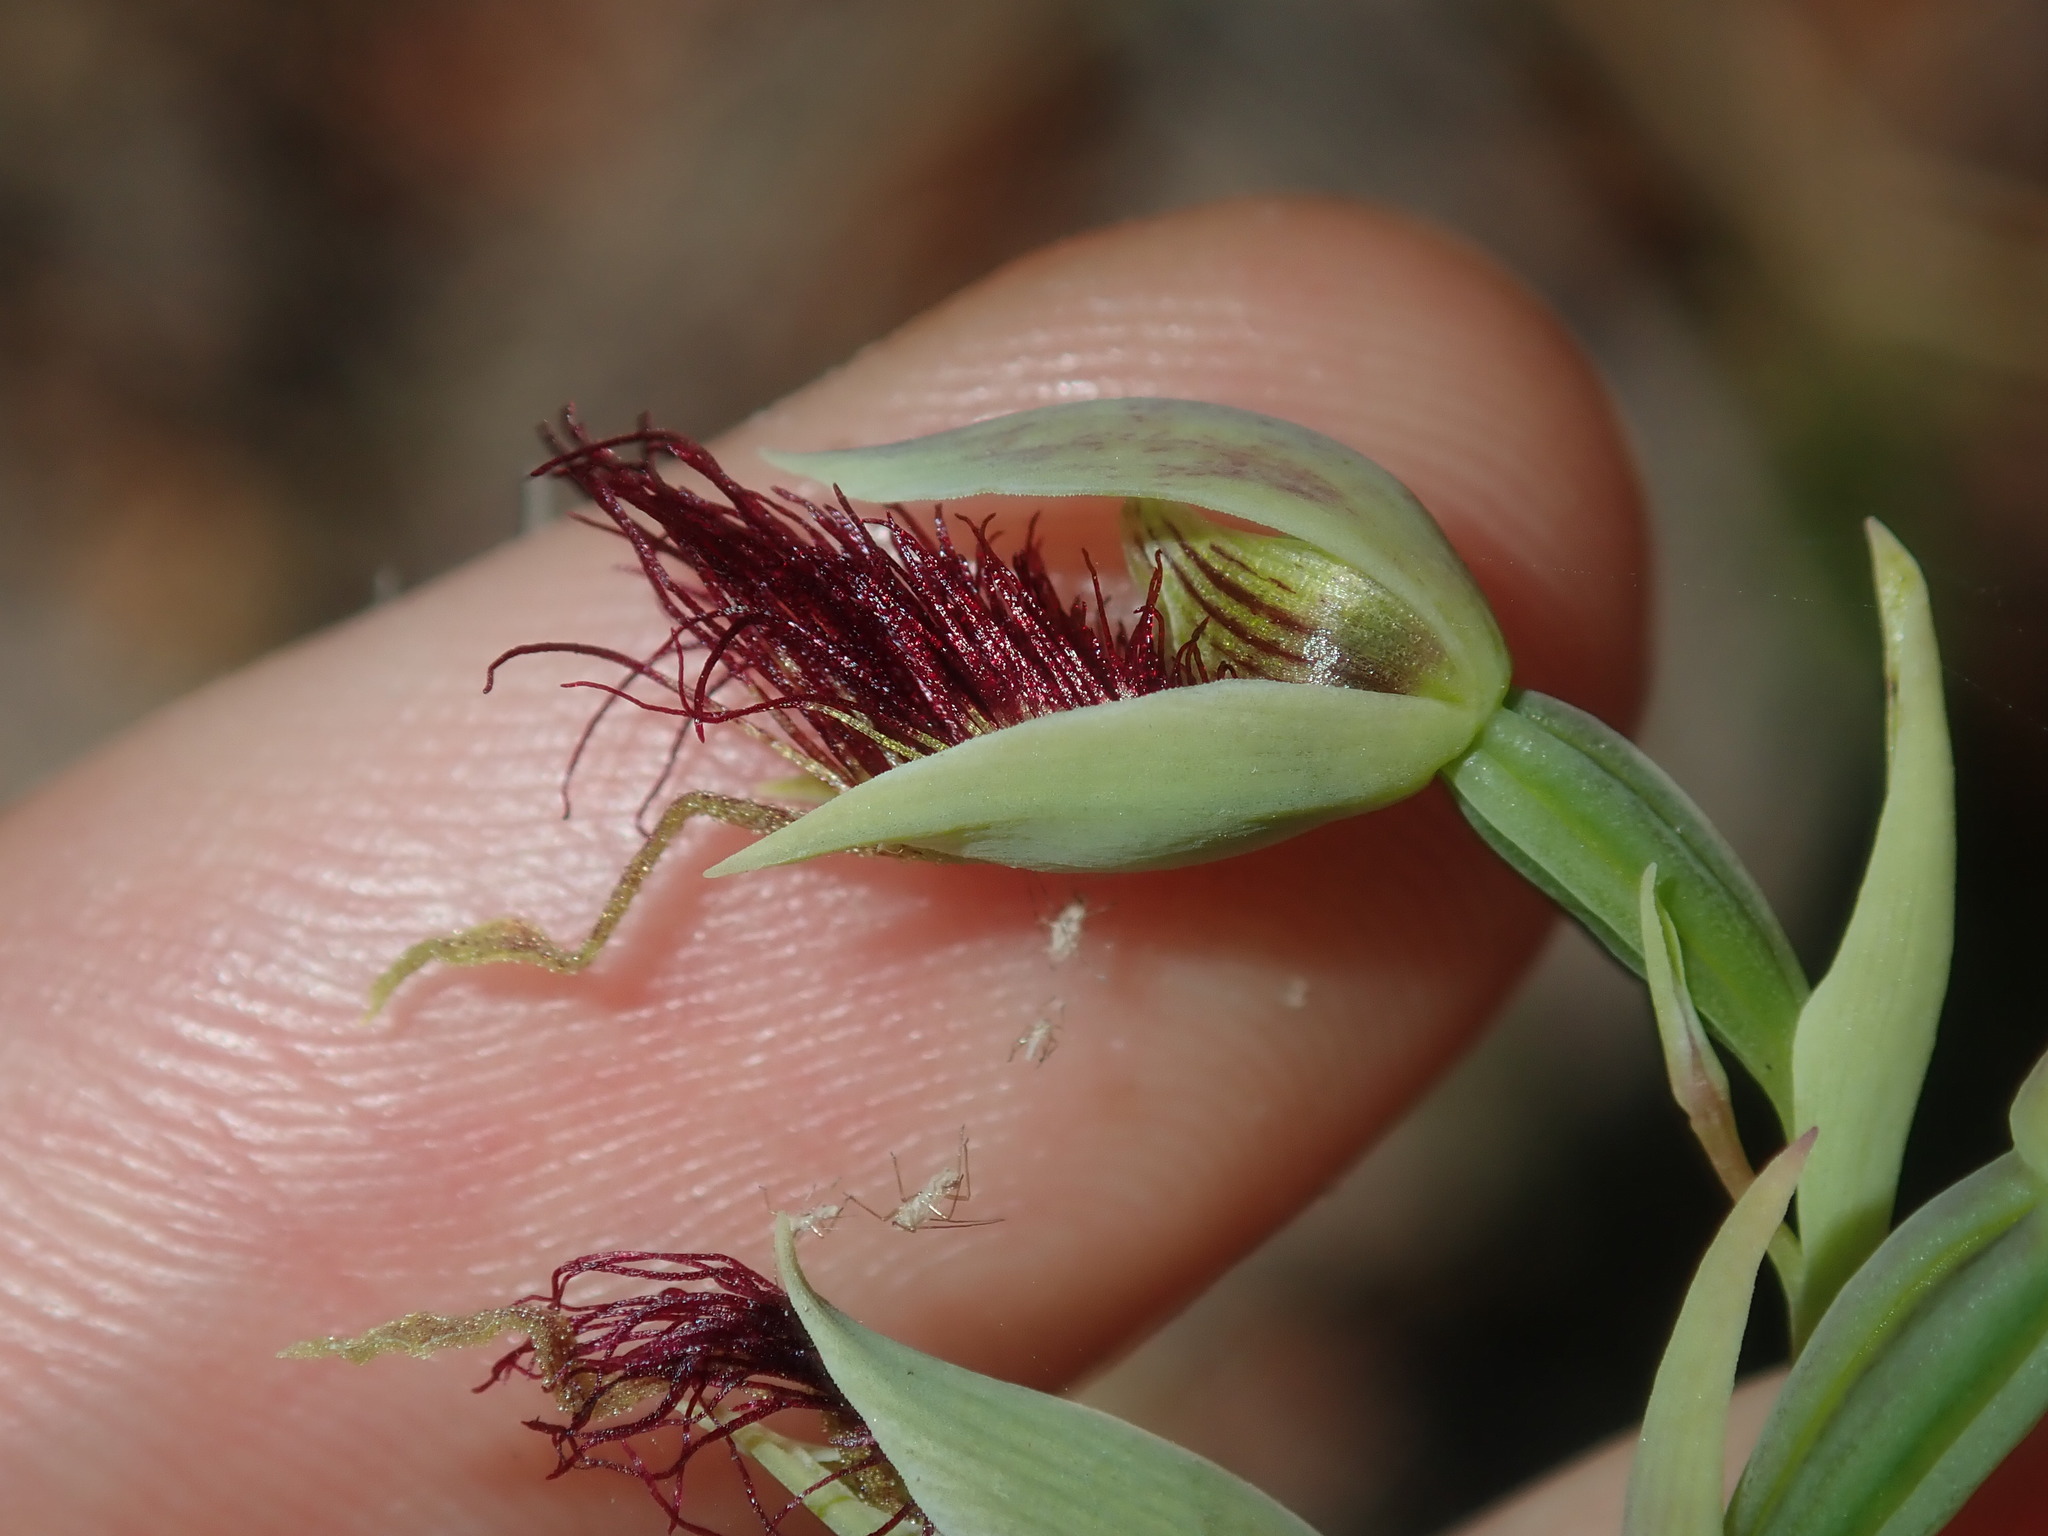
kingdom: Plantae
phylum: Tracheophyta
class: Liliopsida
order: Asparagales
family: Orchidaceae
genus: Calochilus
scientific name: Calochilus paludosus
